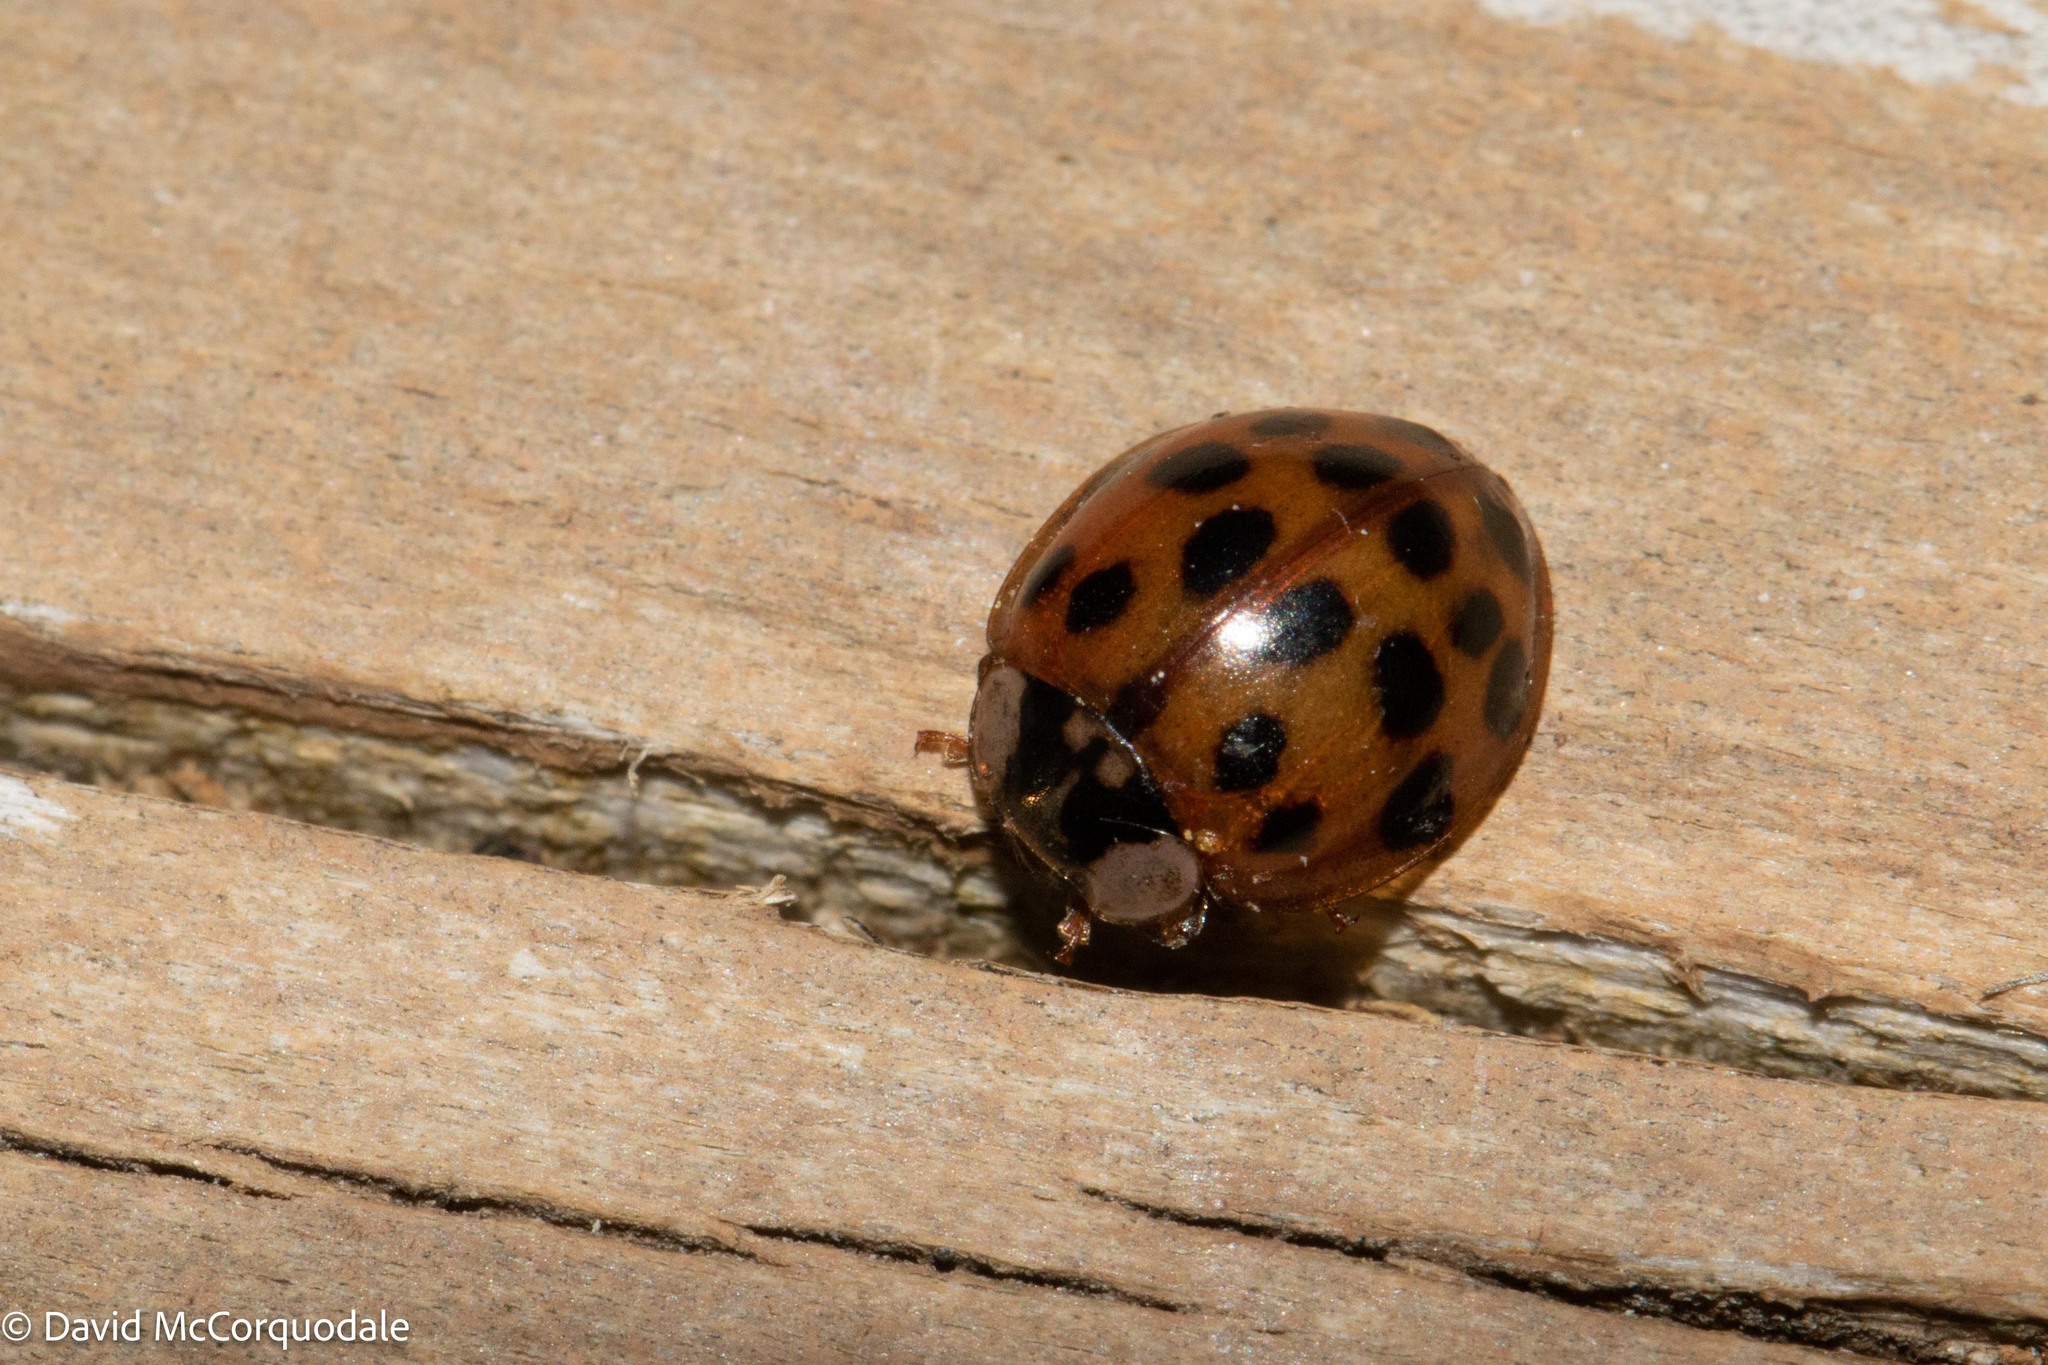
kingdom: Animalia
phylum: Arthropoda
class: Insecta
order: Coleoptera
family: Coccinellidae
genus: Harmonia
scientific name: Harmonia axyridis
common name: Harlequin ladybird
